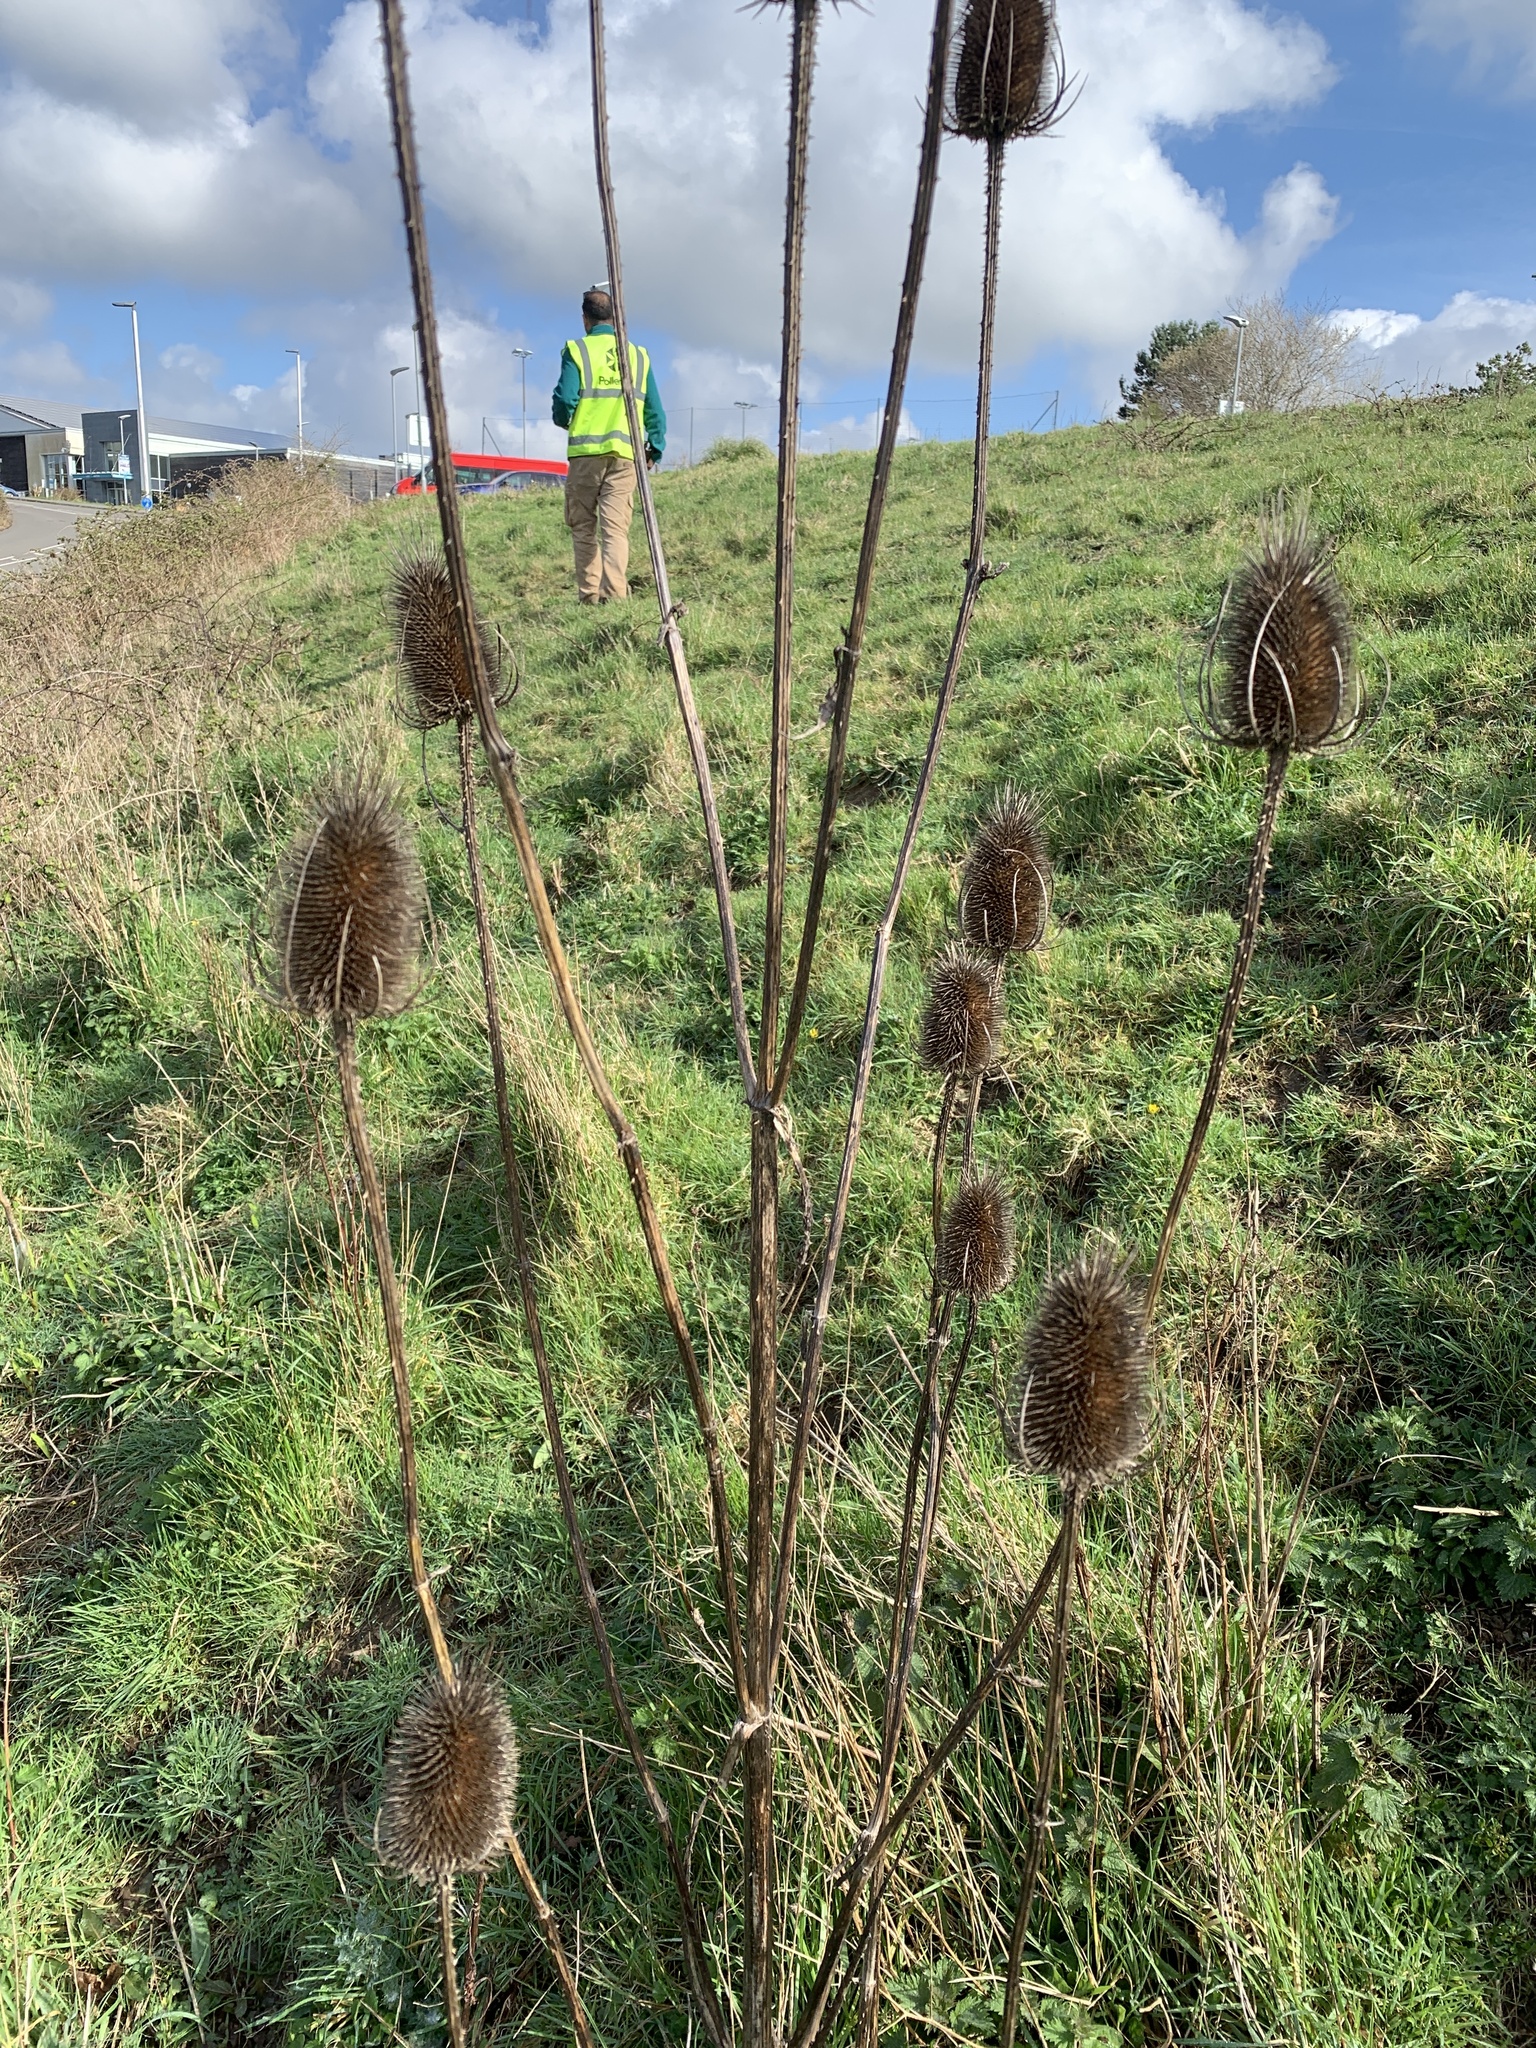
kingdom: Plantae
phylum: Tracheophyta
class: Magnoliopsida
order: Dipsacales
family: Caprifoliaceae
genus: Dipsacus
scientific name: Dipsacus fullonum
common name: Teasel
